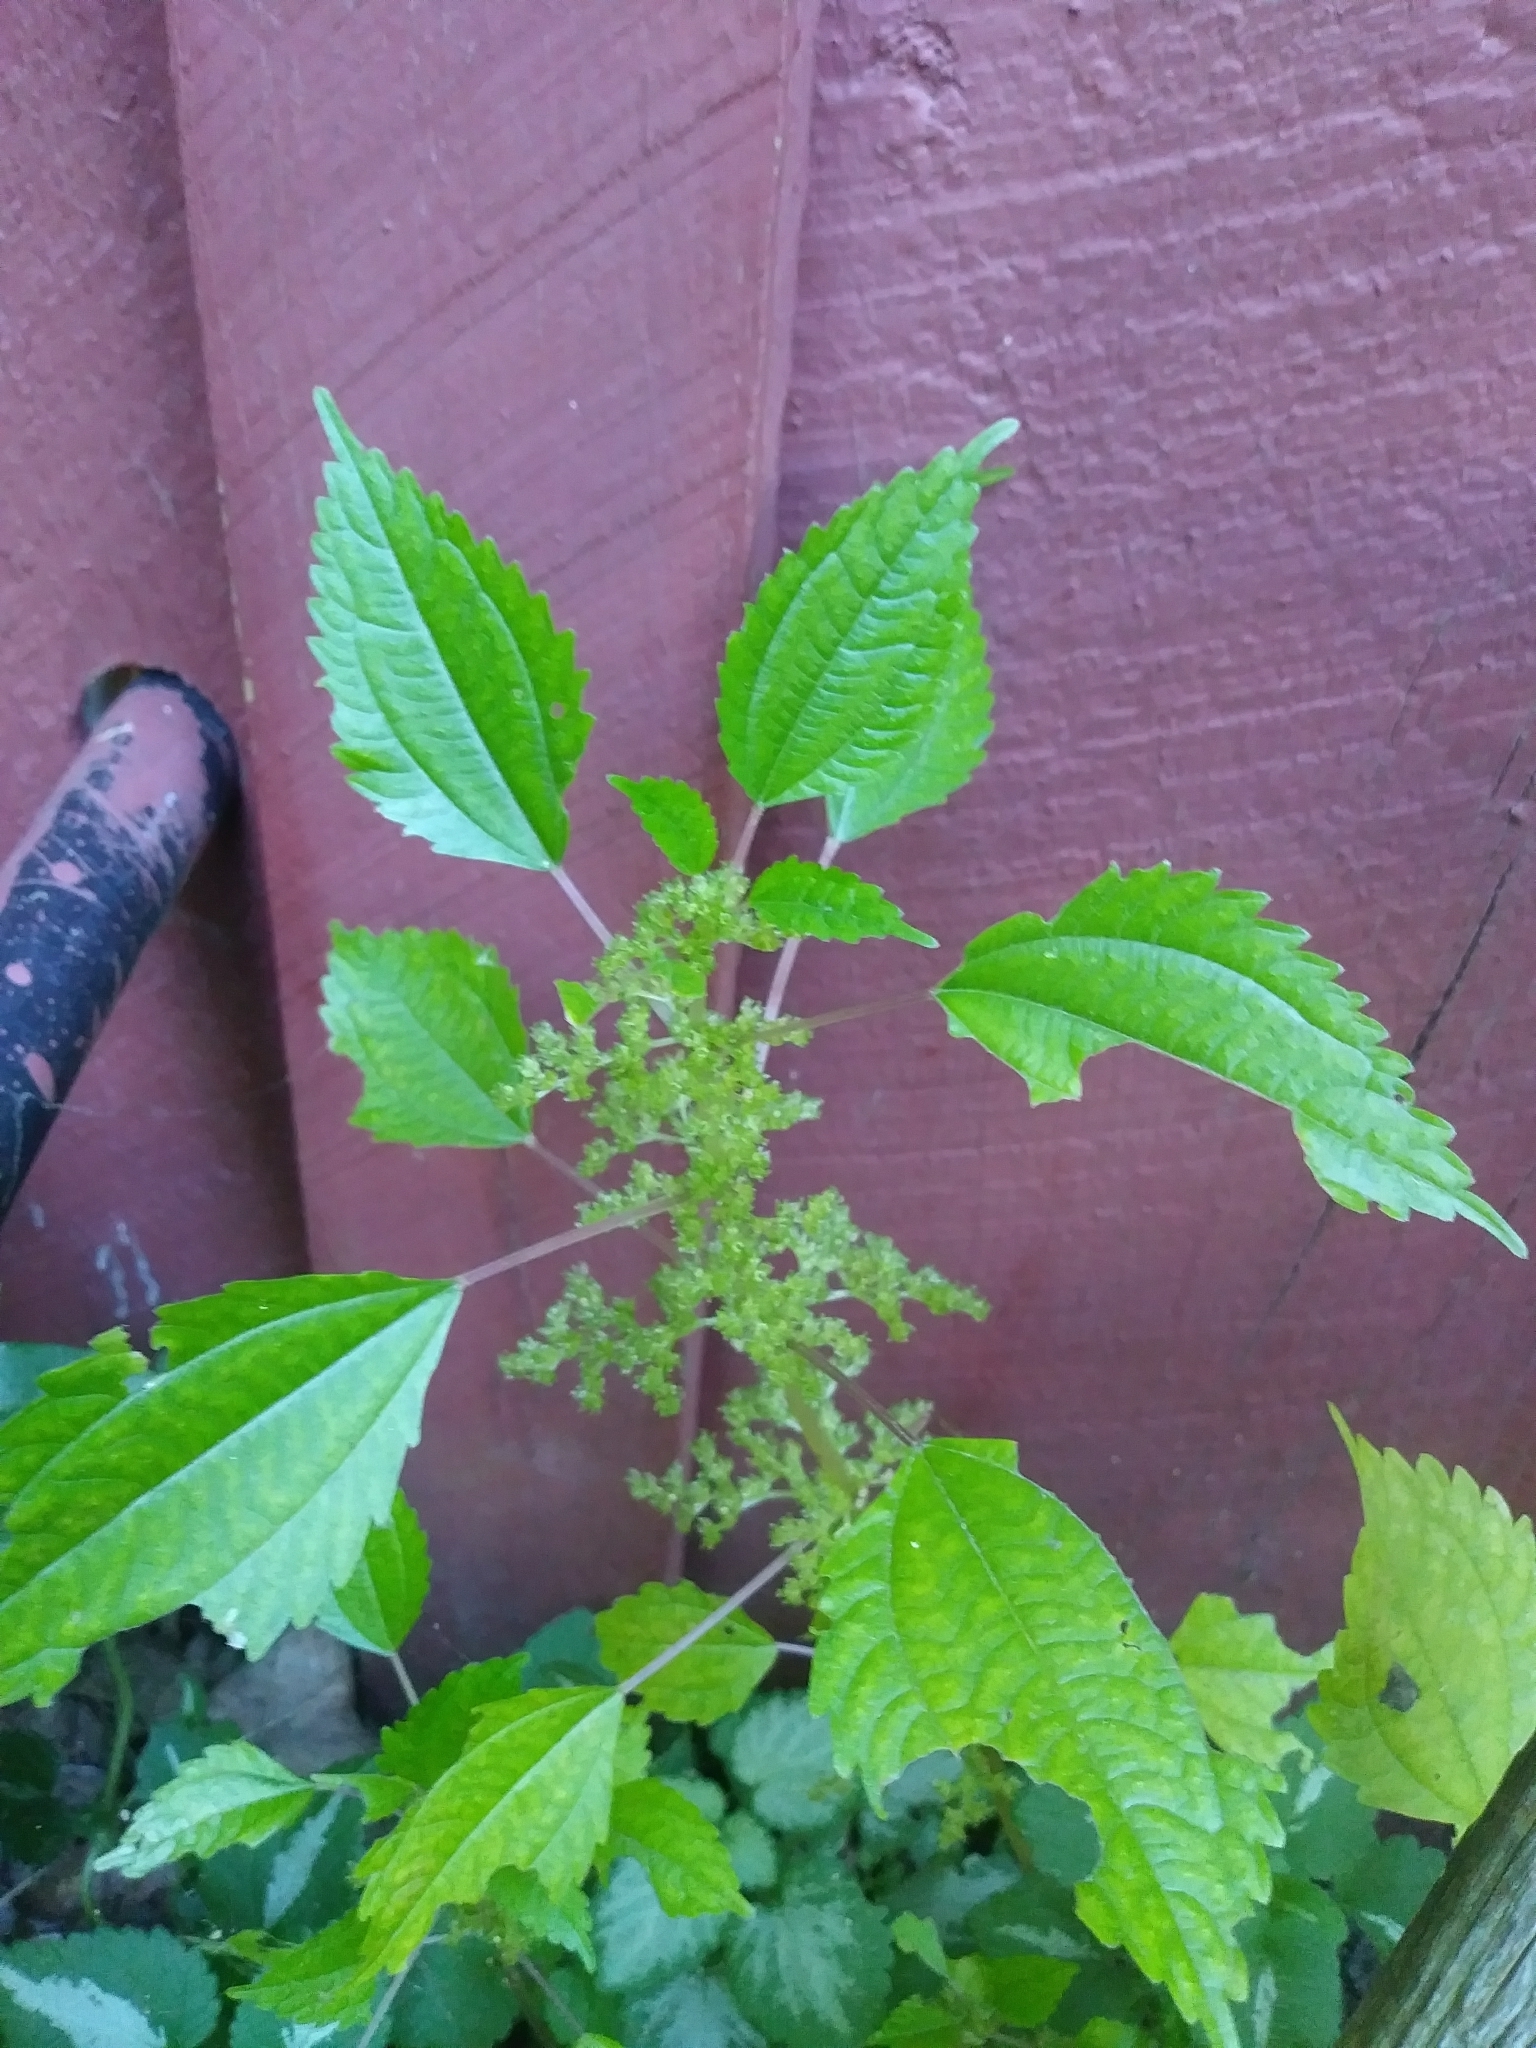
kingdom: Plantae
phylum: Tracheophyta
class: Magnoliopsida
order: Rosales
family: Urticaceae
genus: Pilea
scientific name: Pilea pumila
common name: Clearweed
